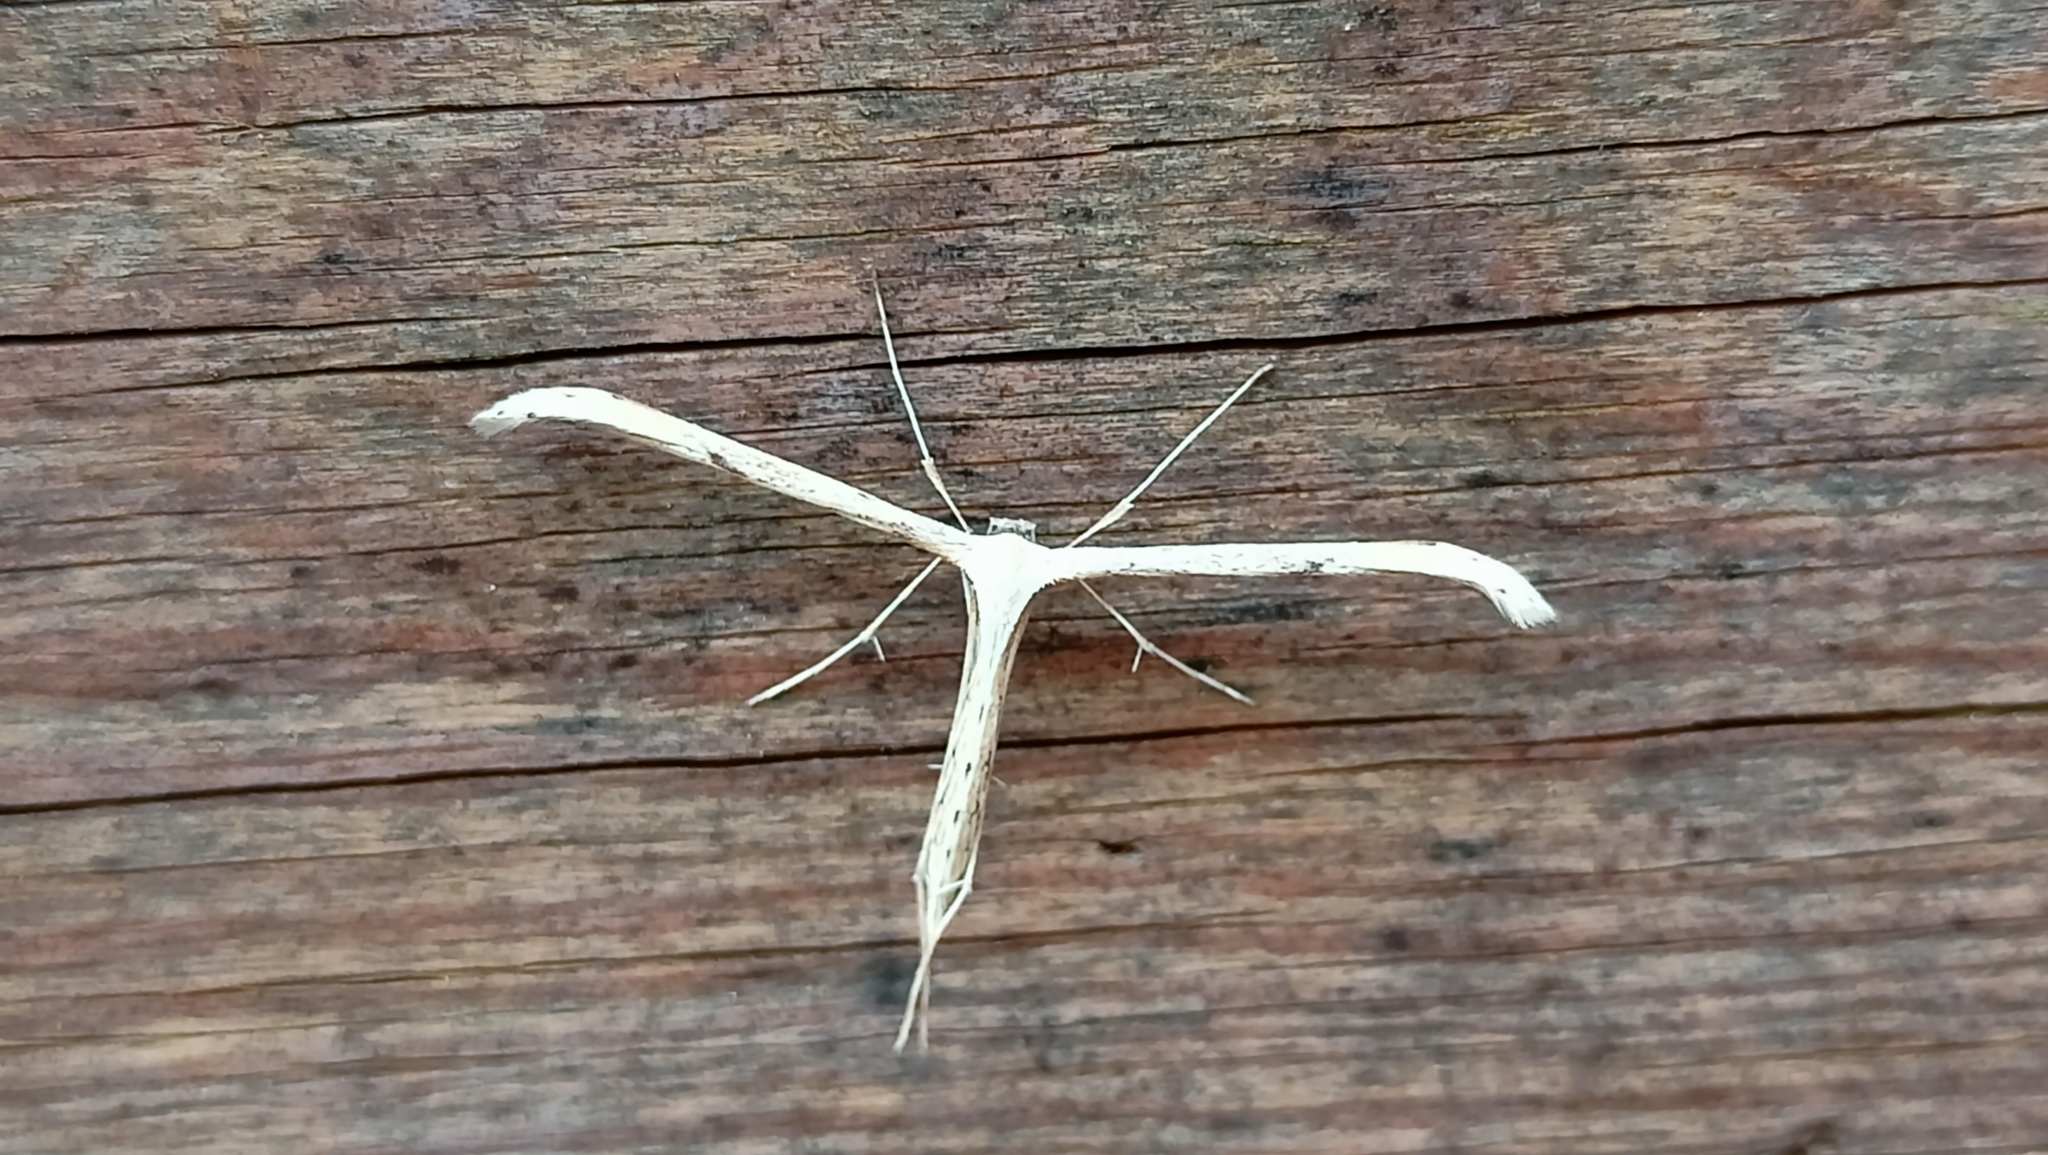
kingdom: Animalia
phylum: Arthropoda
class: Insecta
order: Lepidoptera
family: Pterophoridae
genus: Emmelina
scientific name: Emmelina monodactyla
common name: Common plume
